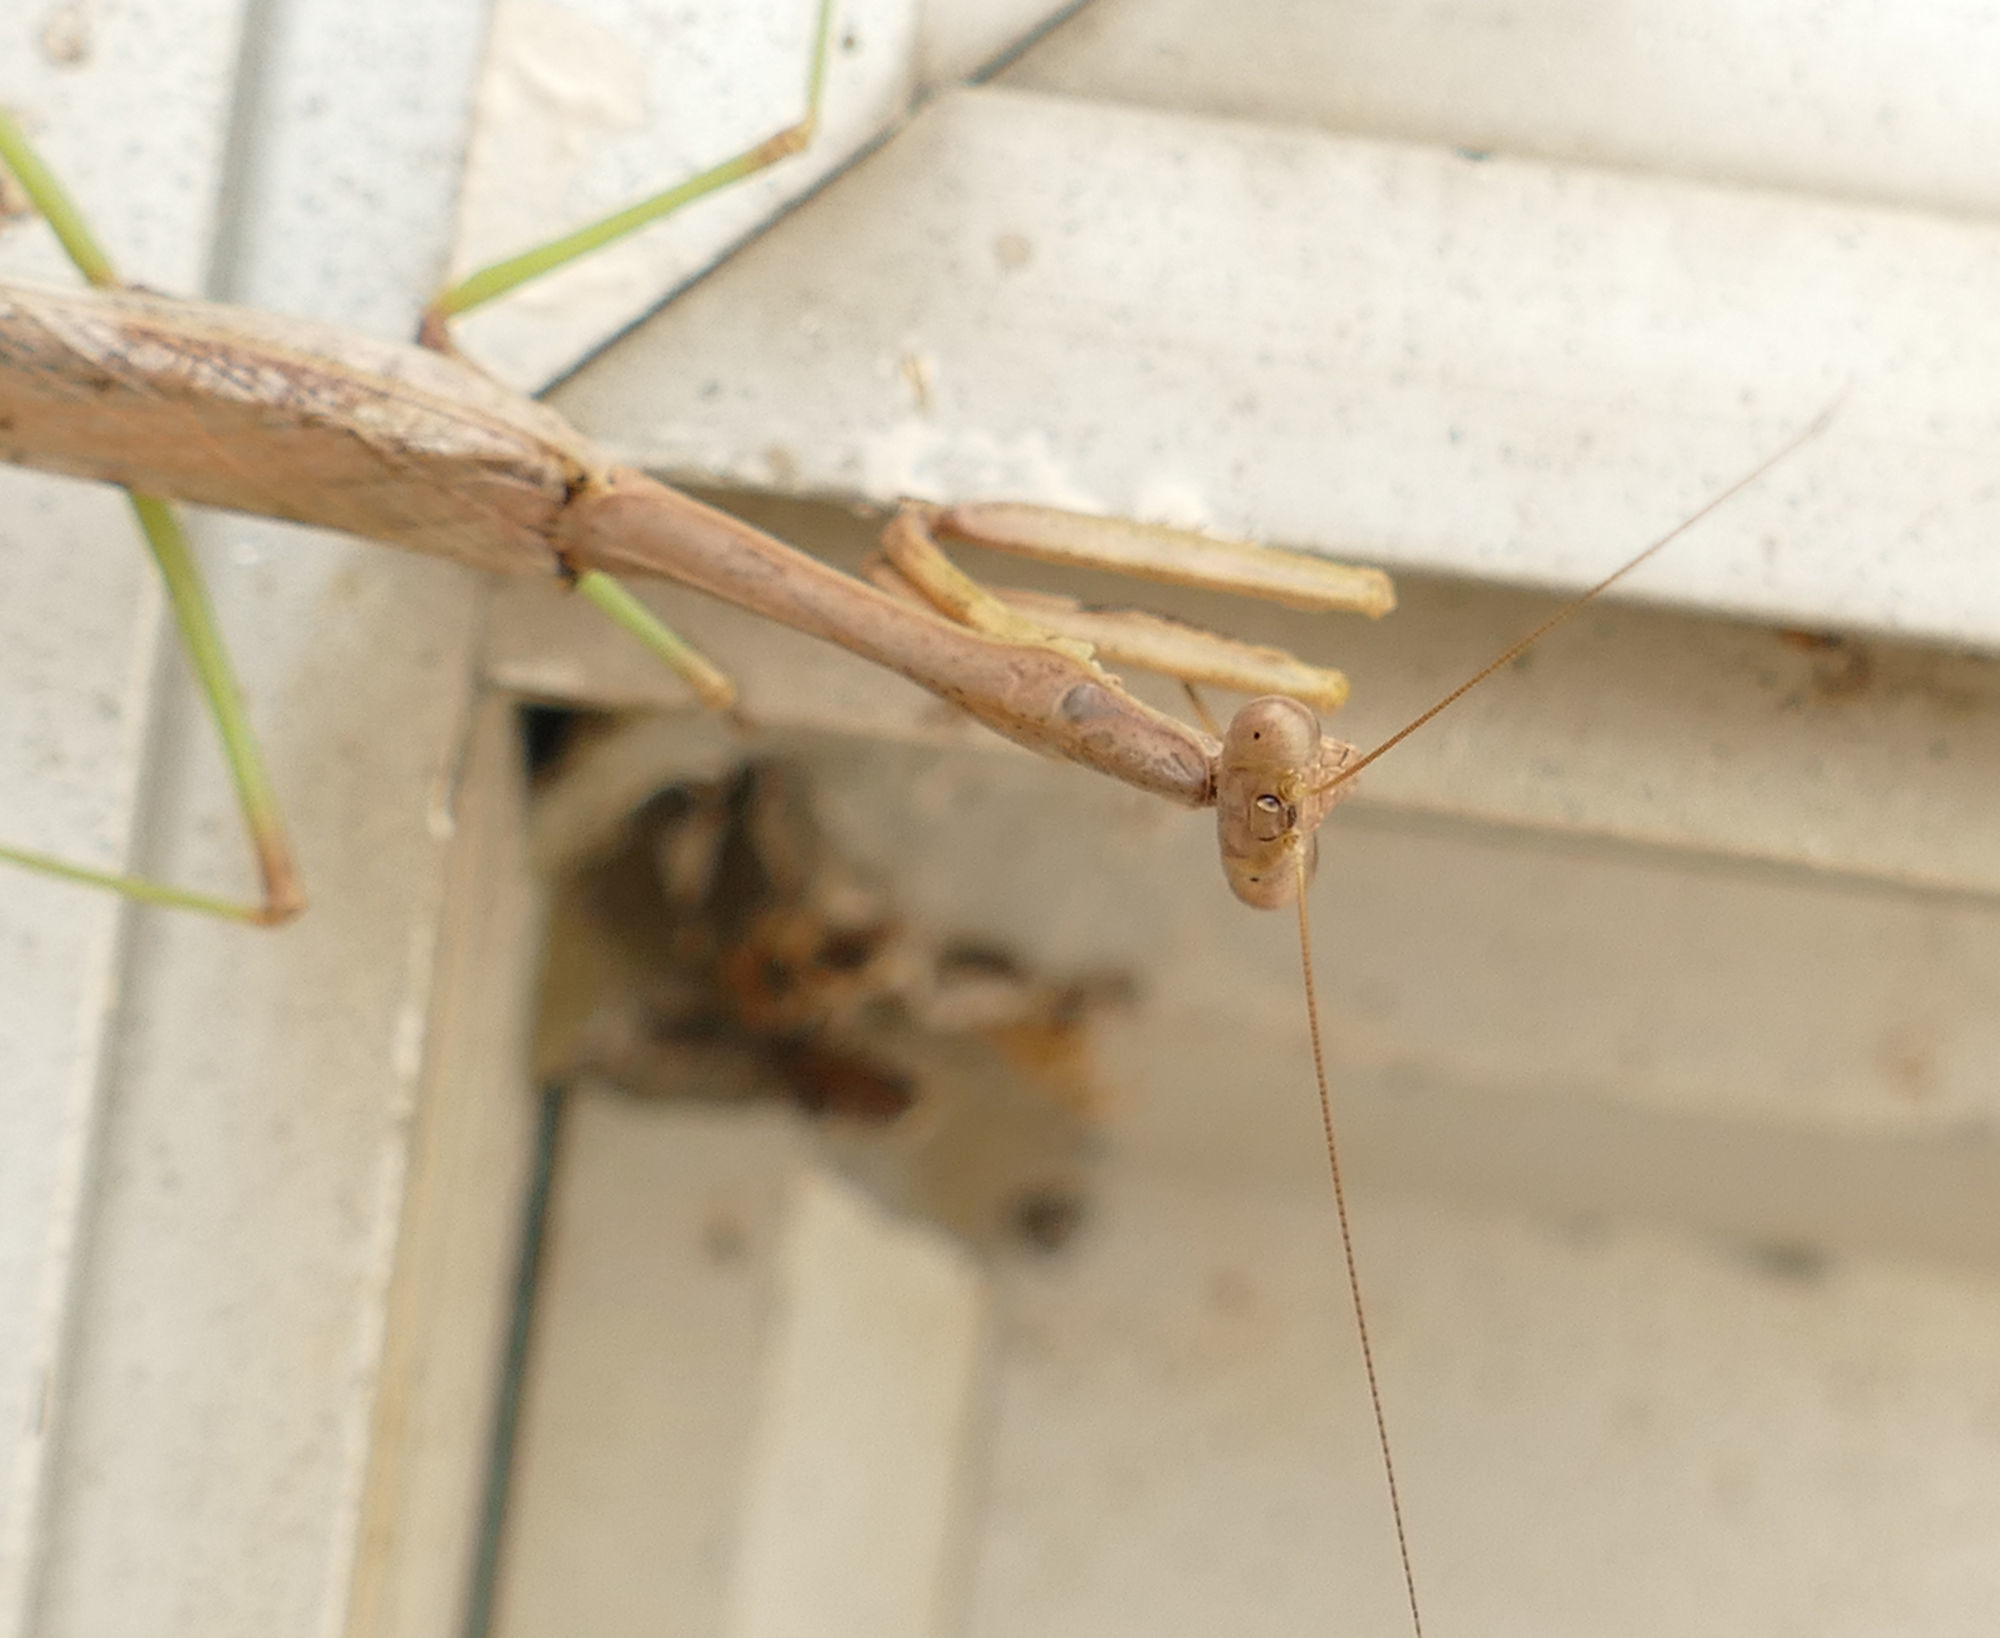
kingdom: Animalia
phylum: Arthropoda
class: Insecta
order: Mantodea
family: Mantidae
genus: Stagmomantis
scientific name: Stagmomantis carolina
